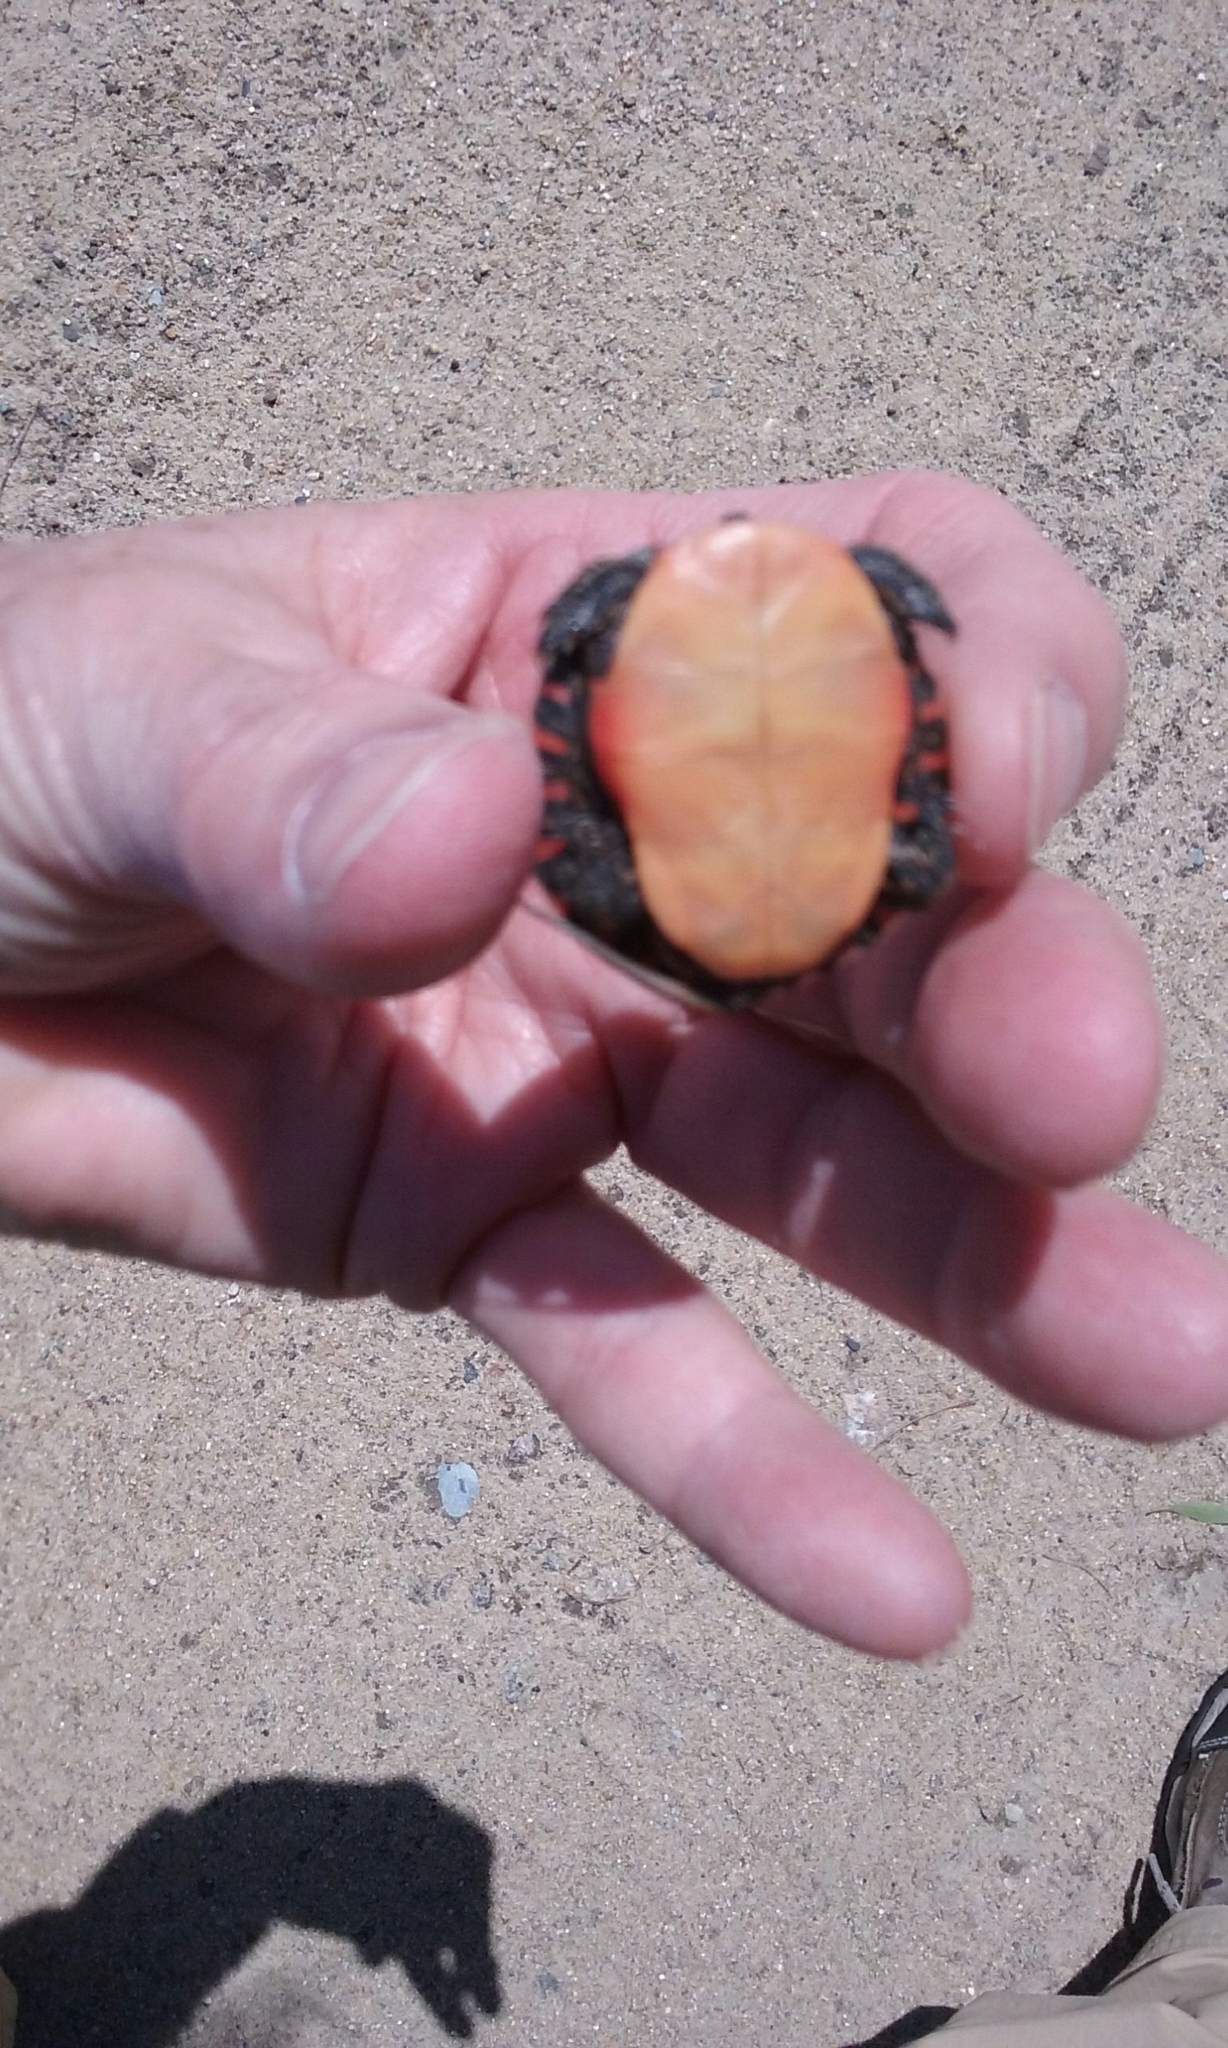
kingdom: Animalia
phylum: Chordata
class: Testudines
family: Emydidae
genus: Chrysemys
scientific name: Chrysemys picta
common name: Painted turtle
